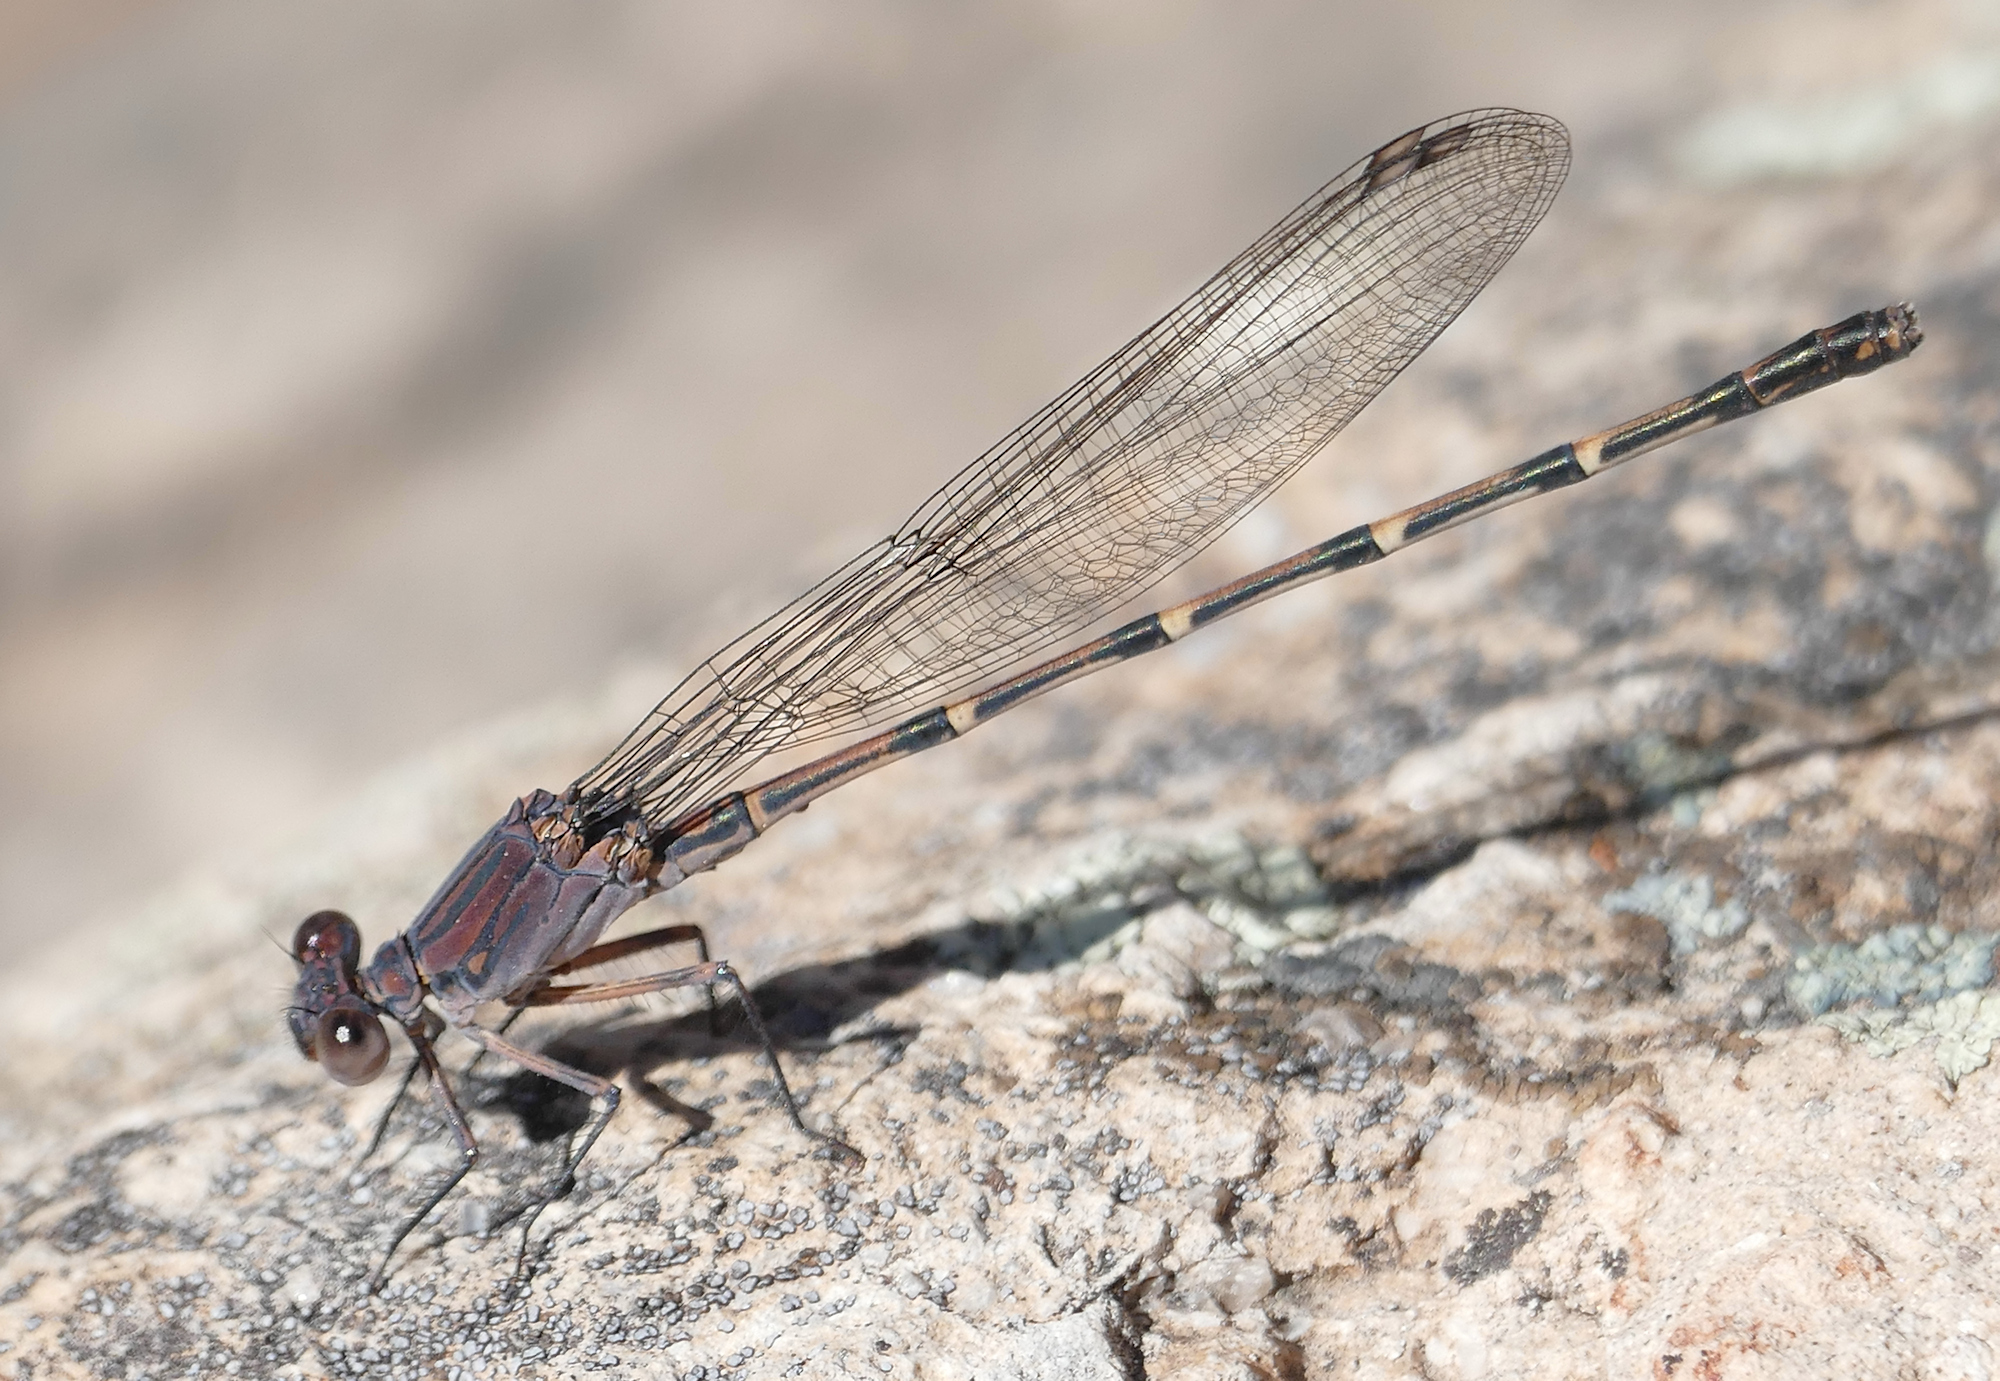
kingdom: Animalia
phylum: Arthropoda
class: Insecta
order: Odonata
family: Coenagrionidae
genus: Argia
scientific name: Argia lugens
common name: Sooty dancer
